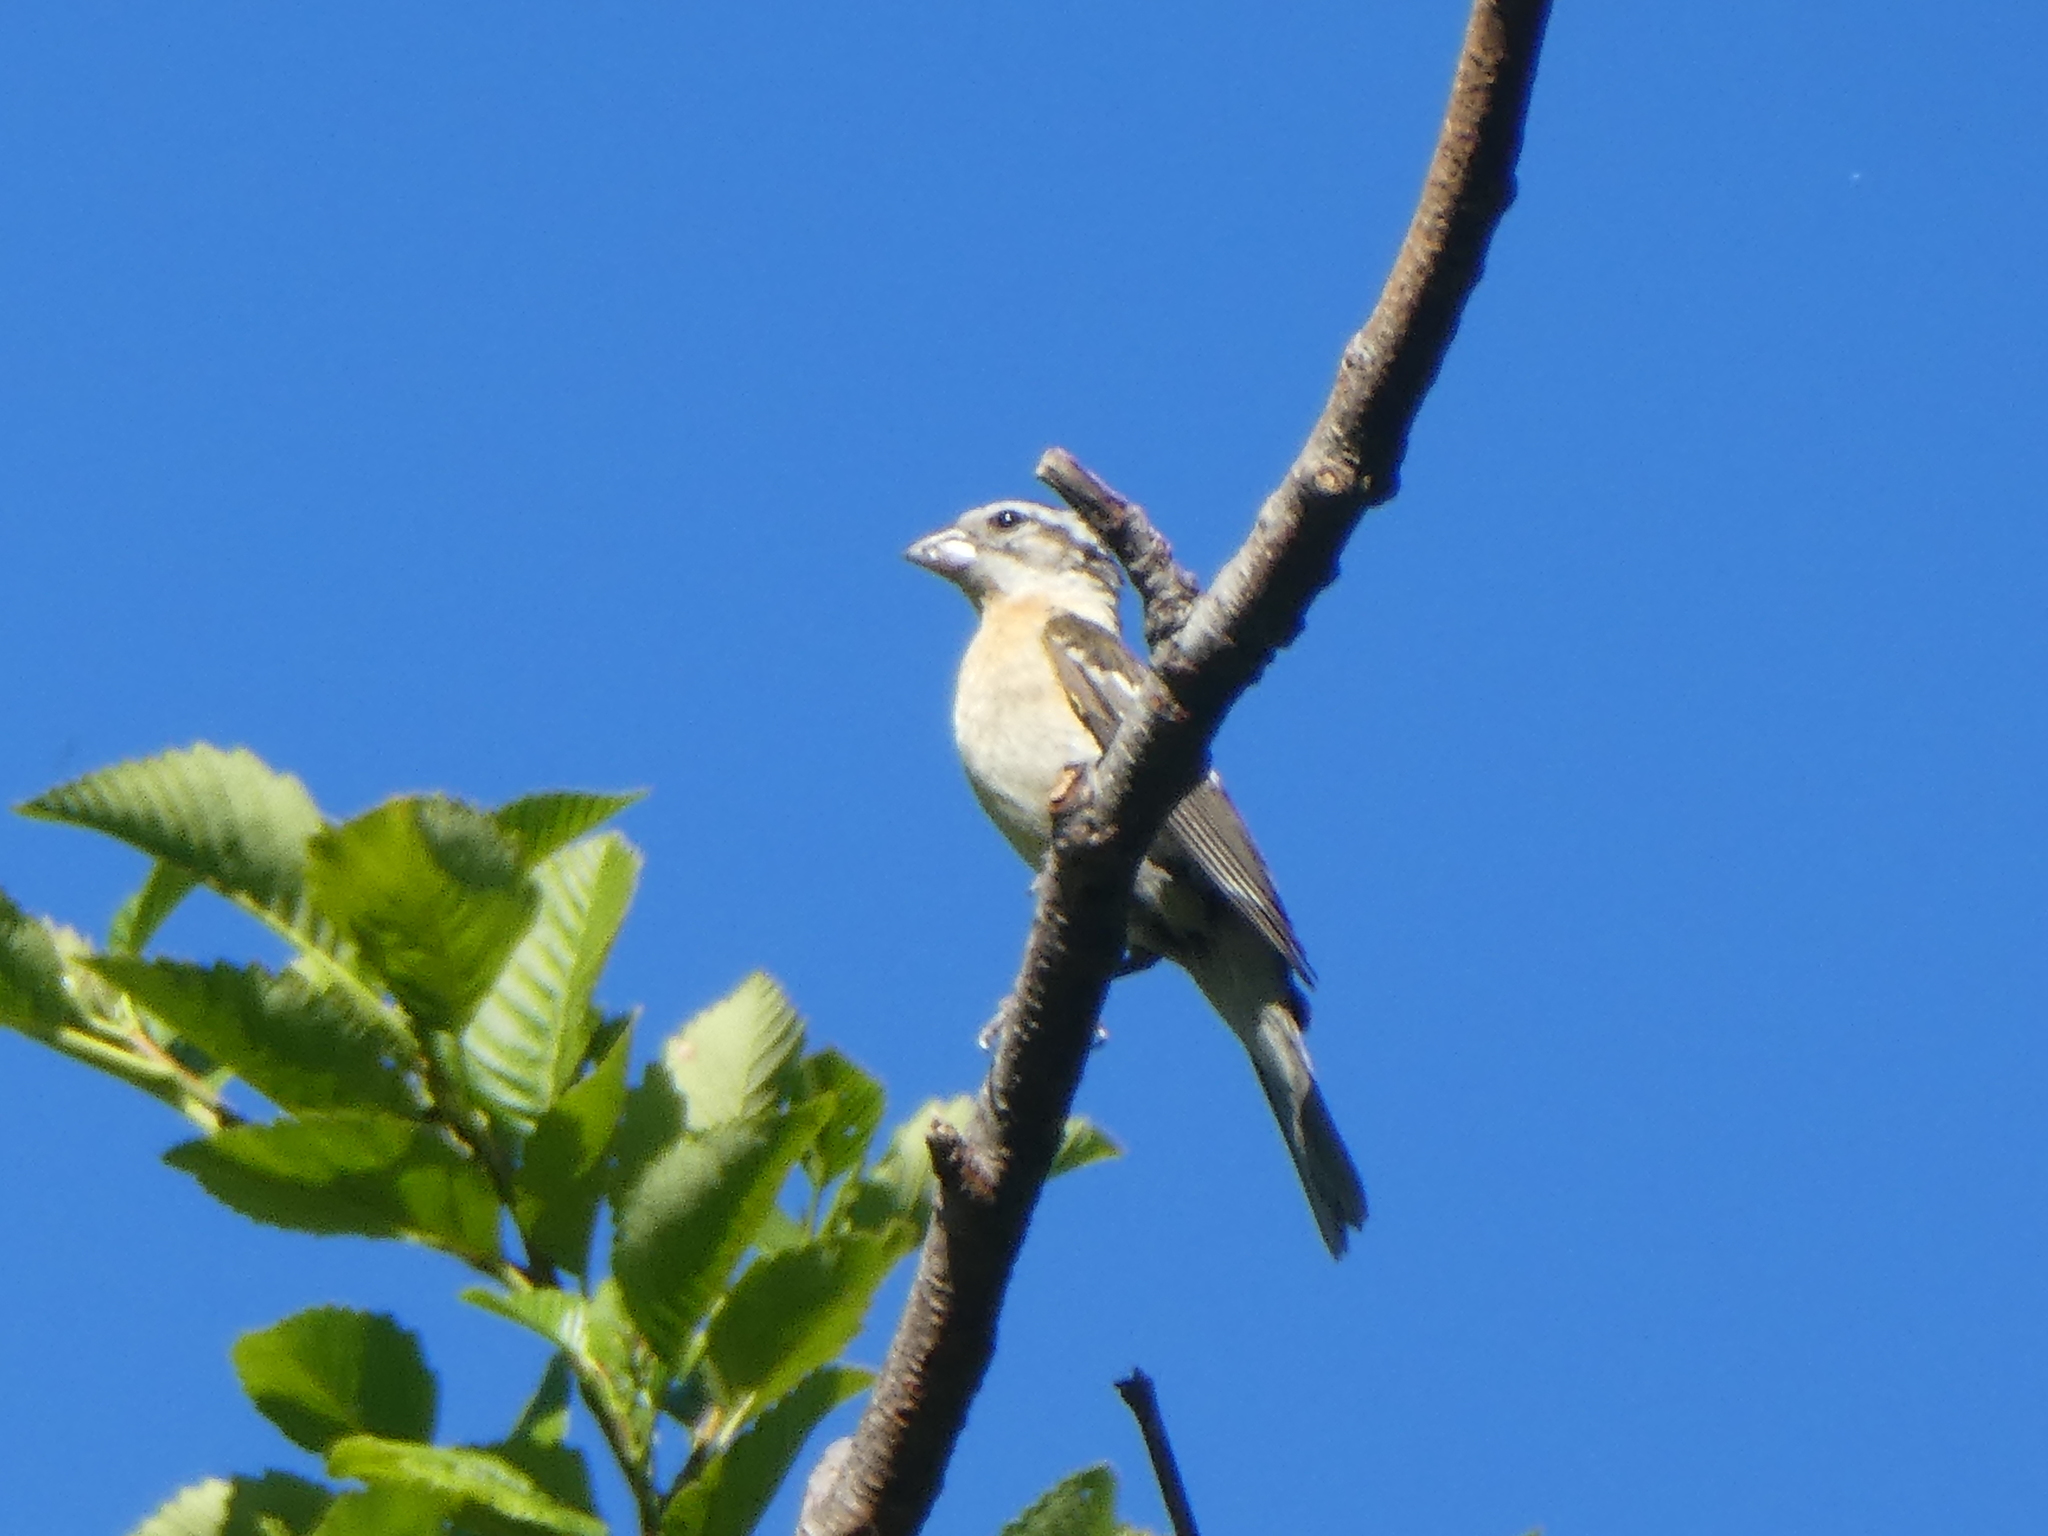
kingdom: Animalia
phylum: Chordata
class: Aves
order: Passeriformes
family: Cardinalidae
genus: Pheucticus
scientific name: Pheucticus melanocephalus
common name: Black-headed grosbeak
